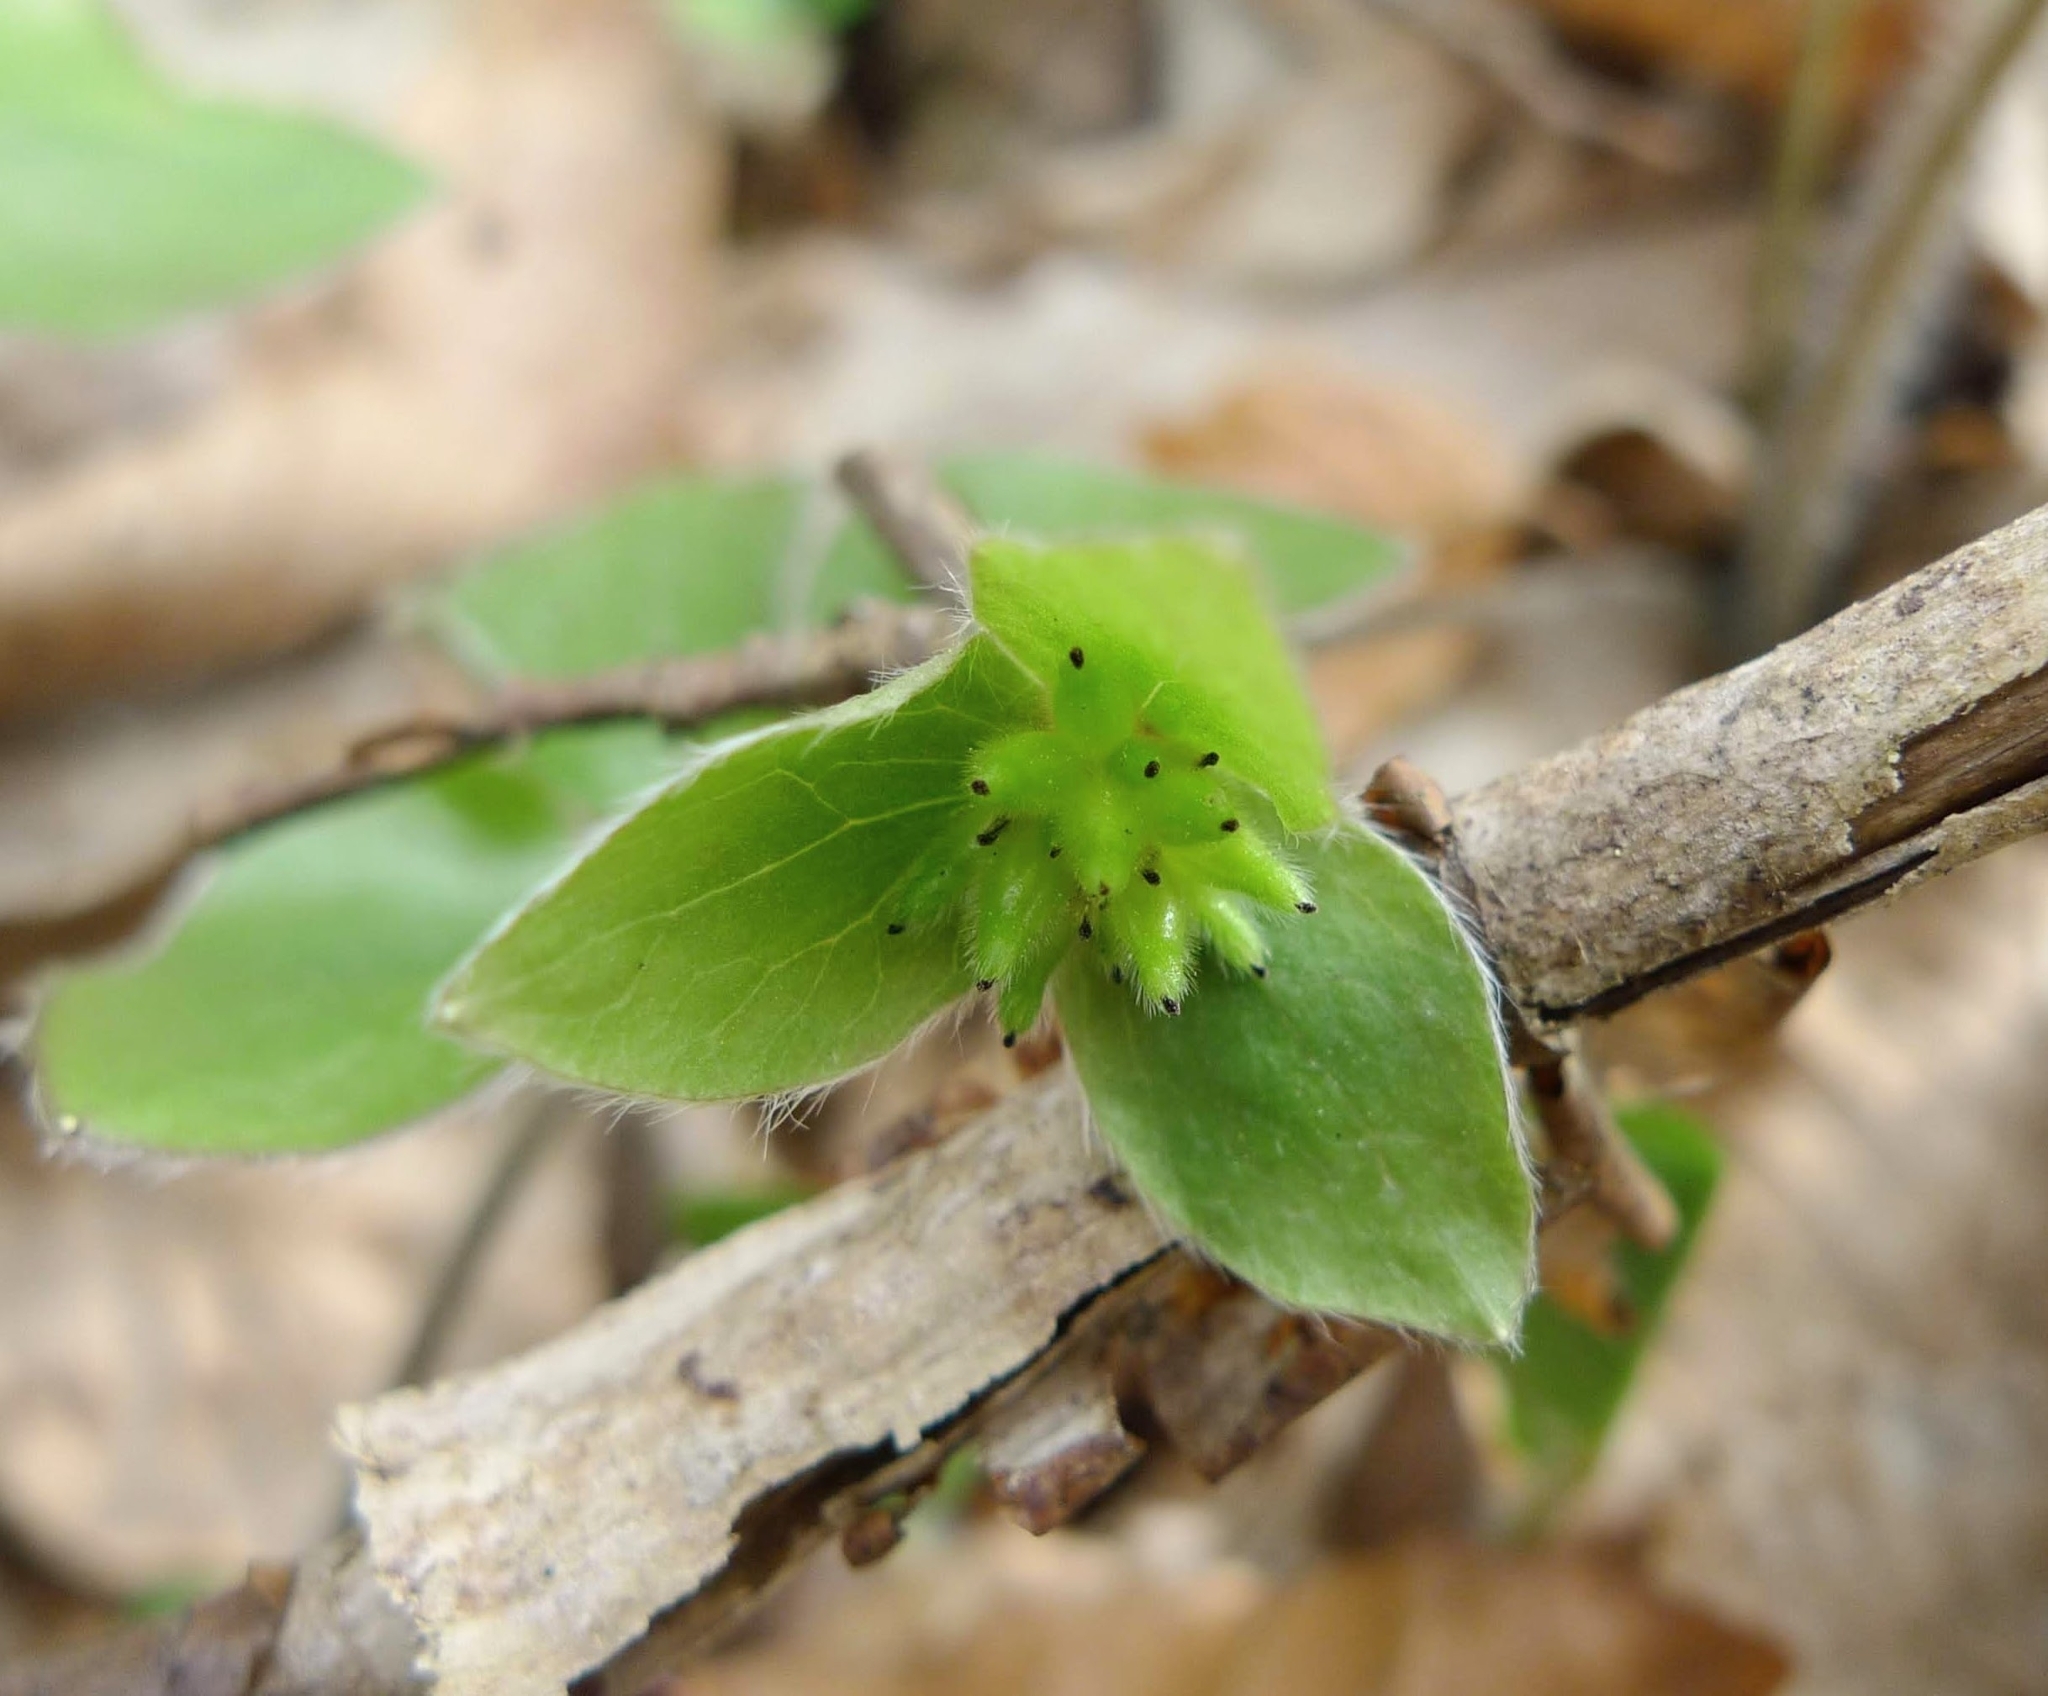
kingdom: Plantae
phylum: Tracheophyta
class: Magnoliopsida
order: Ranunculales
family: Ranunculaceae
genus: Hepatica
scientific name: Hepatica nobilis
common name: Liverleaf
